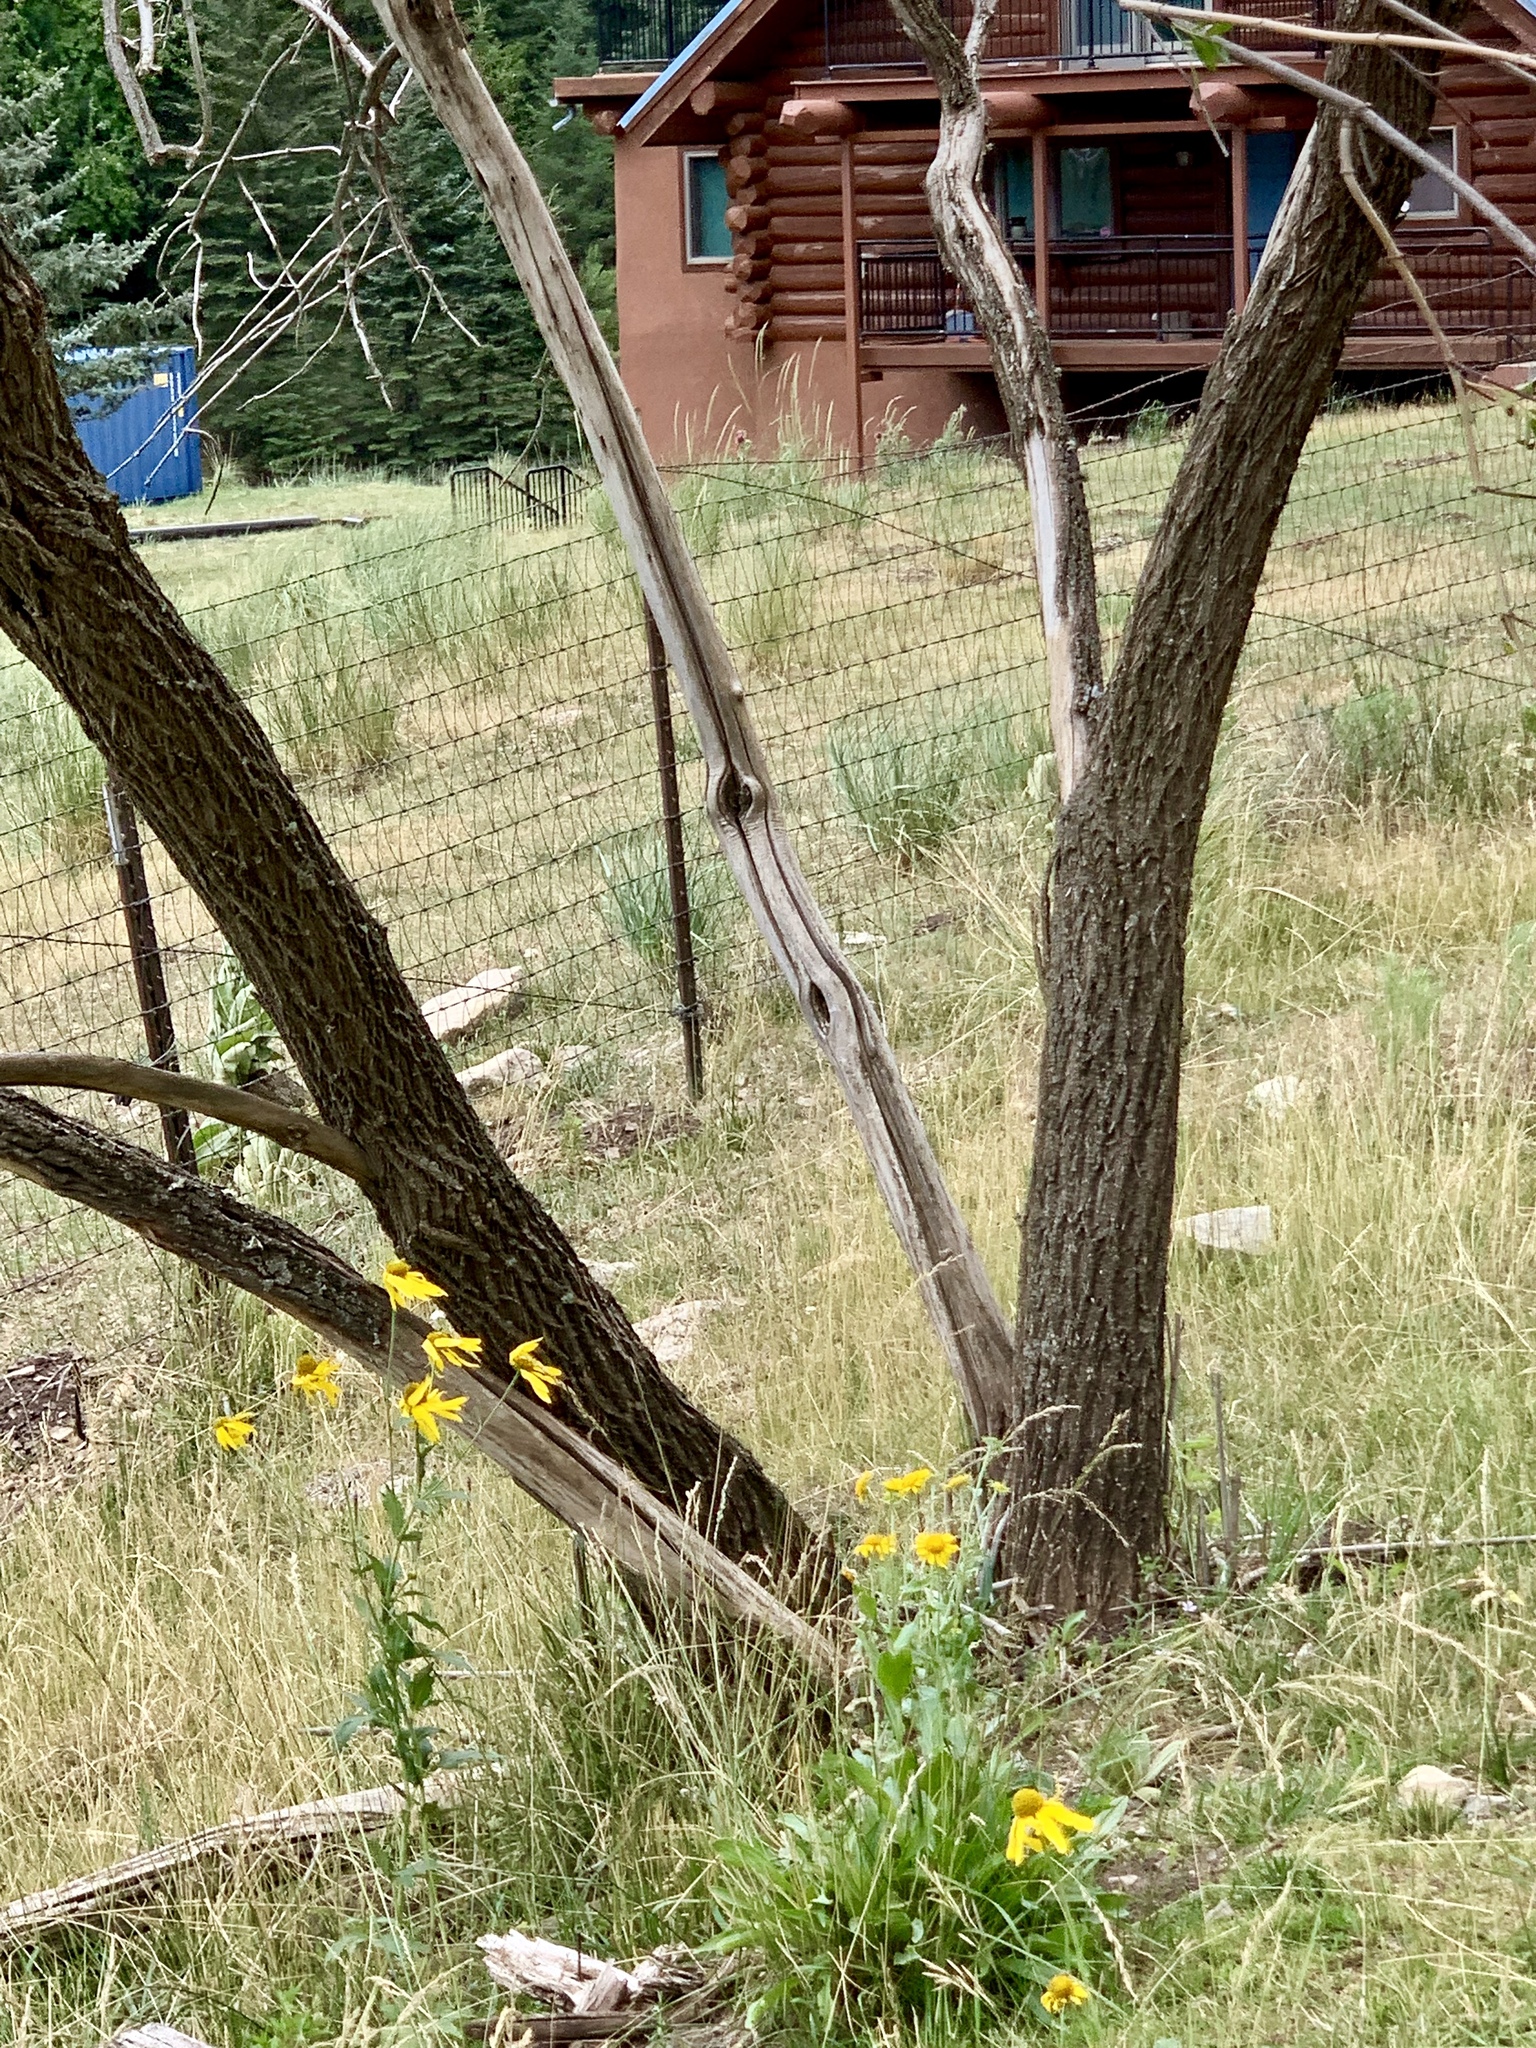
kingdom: Plantae
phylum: Tracheophyta
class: Magnoliopsida
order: Dipsacales
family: Viburnaceae
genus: Sambucus
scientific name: Sambucus cerulea
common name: Blue elder
